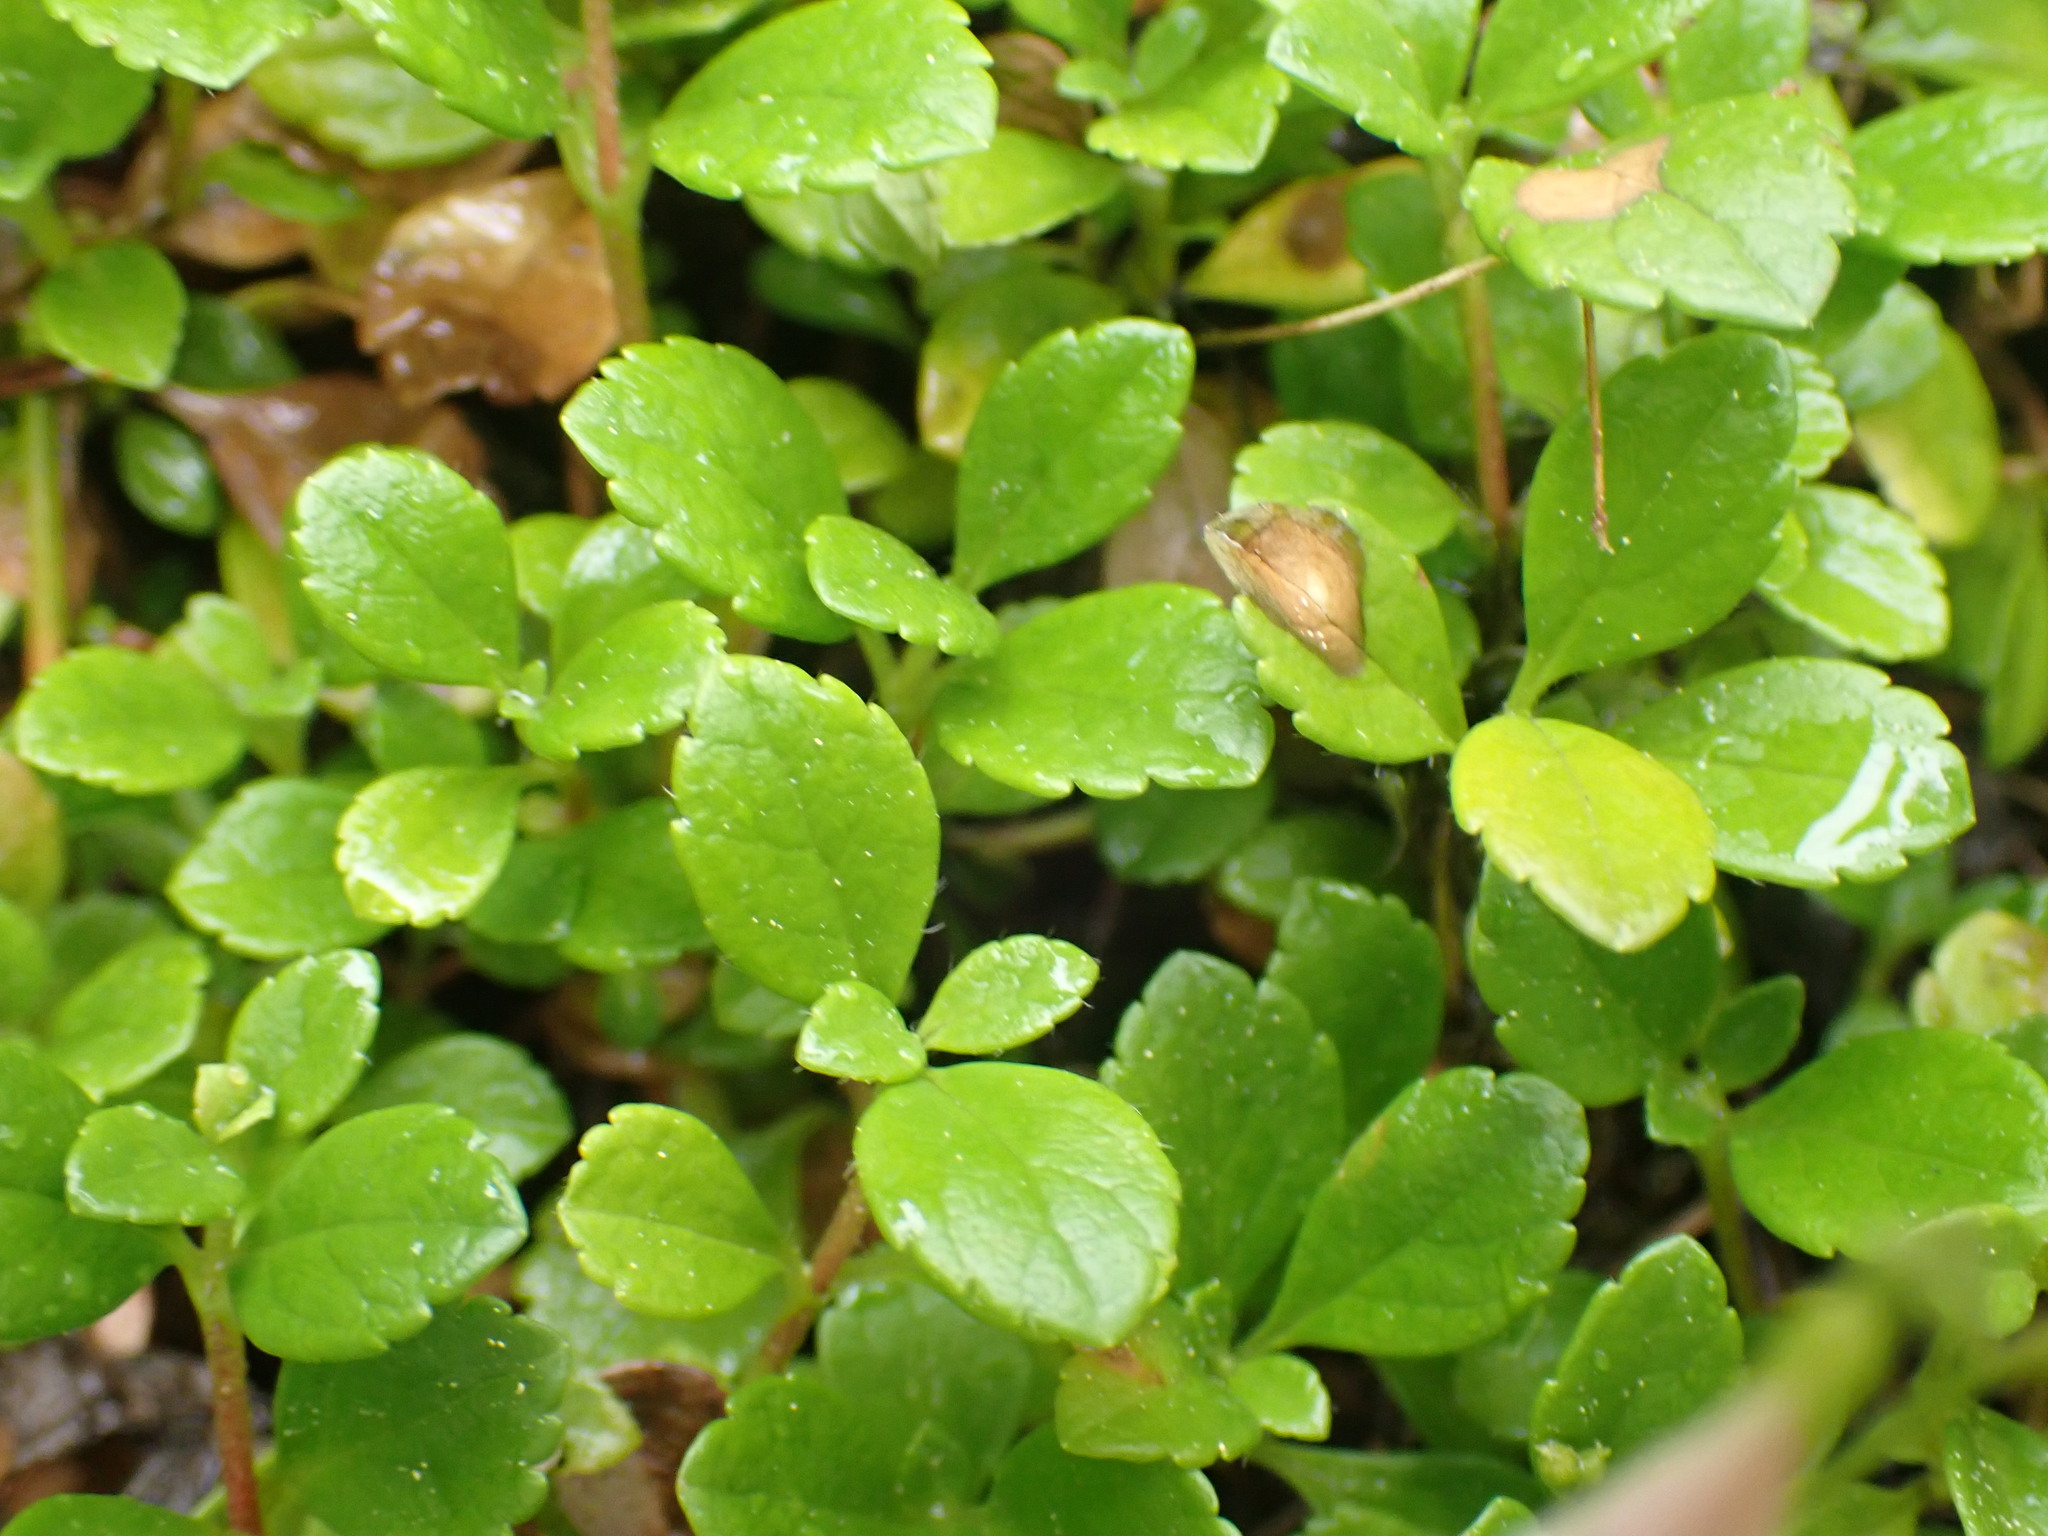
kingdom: Plantae
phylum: Tracheophyta
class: Magnoliopsida
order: Dipsacales
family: Caprifoliaceae
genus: Linnaea
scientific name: Linnaea borealis
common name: Twinflower
